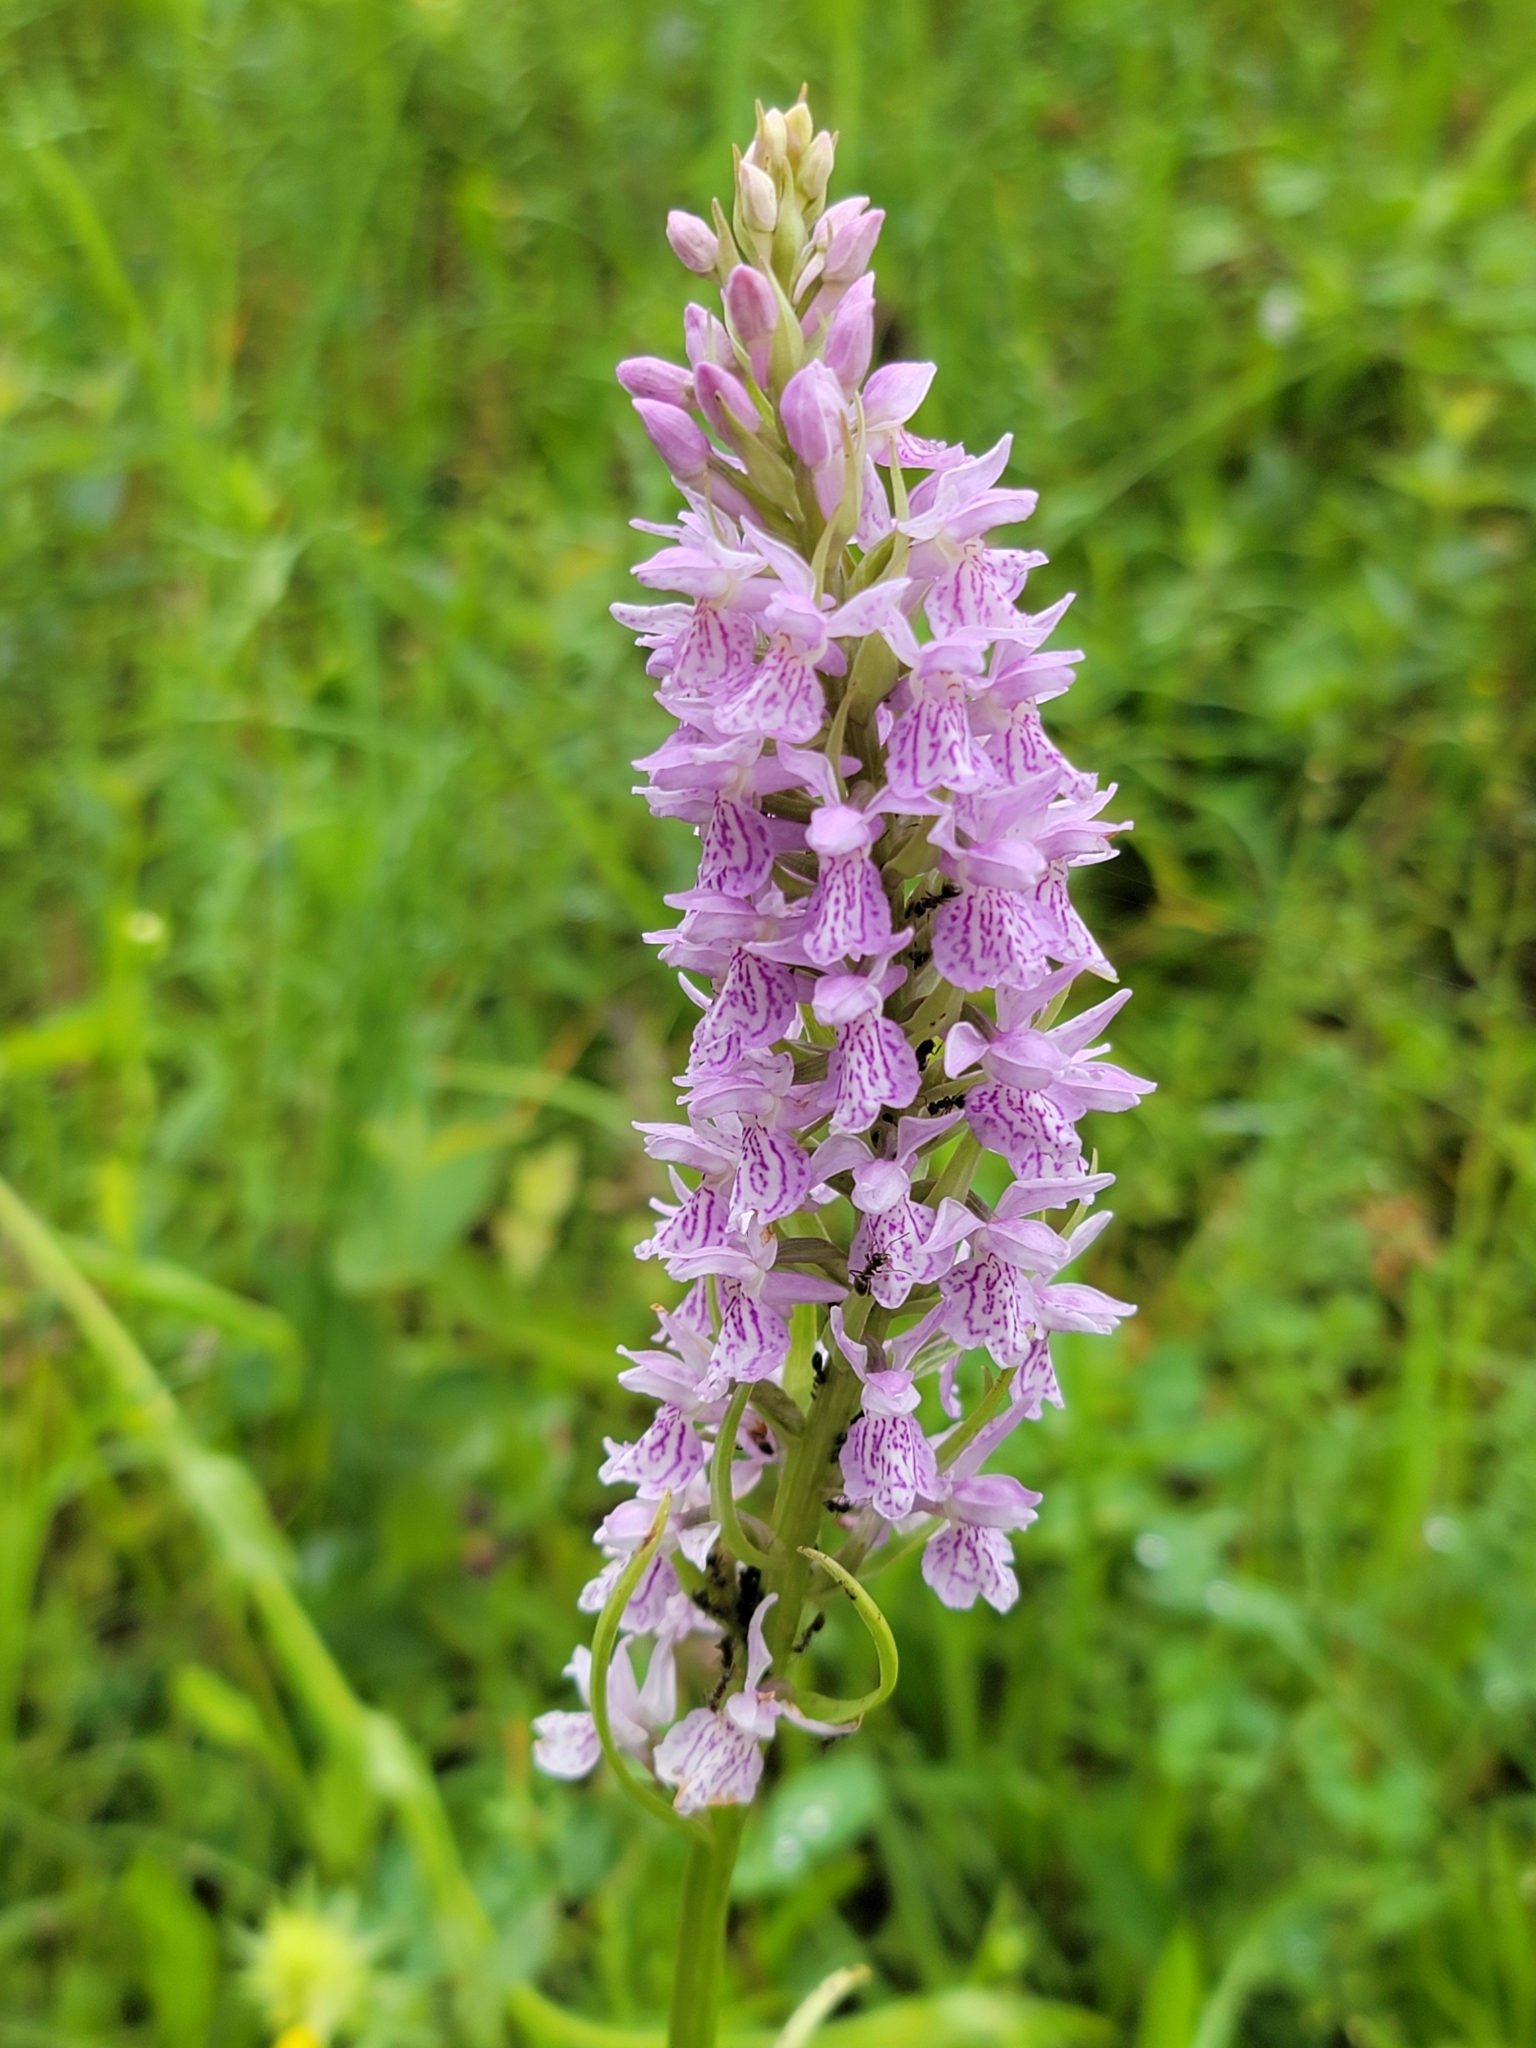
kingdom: Plantae
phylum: Tracheophyta
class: Liliopsida
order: Asparagales
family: Orchidaceae
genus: Dactylorhiza
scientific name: Dactylorhiza maculata
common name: Heath spotted-orchid
